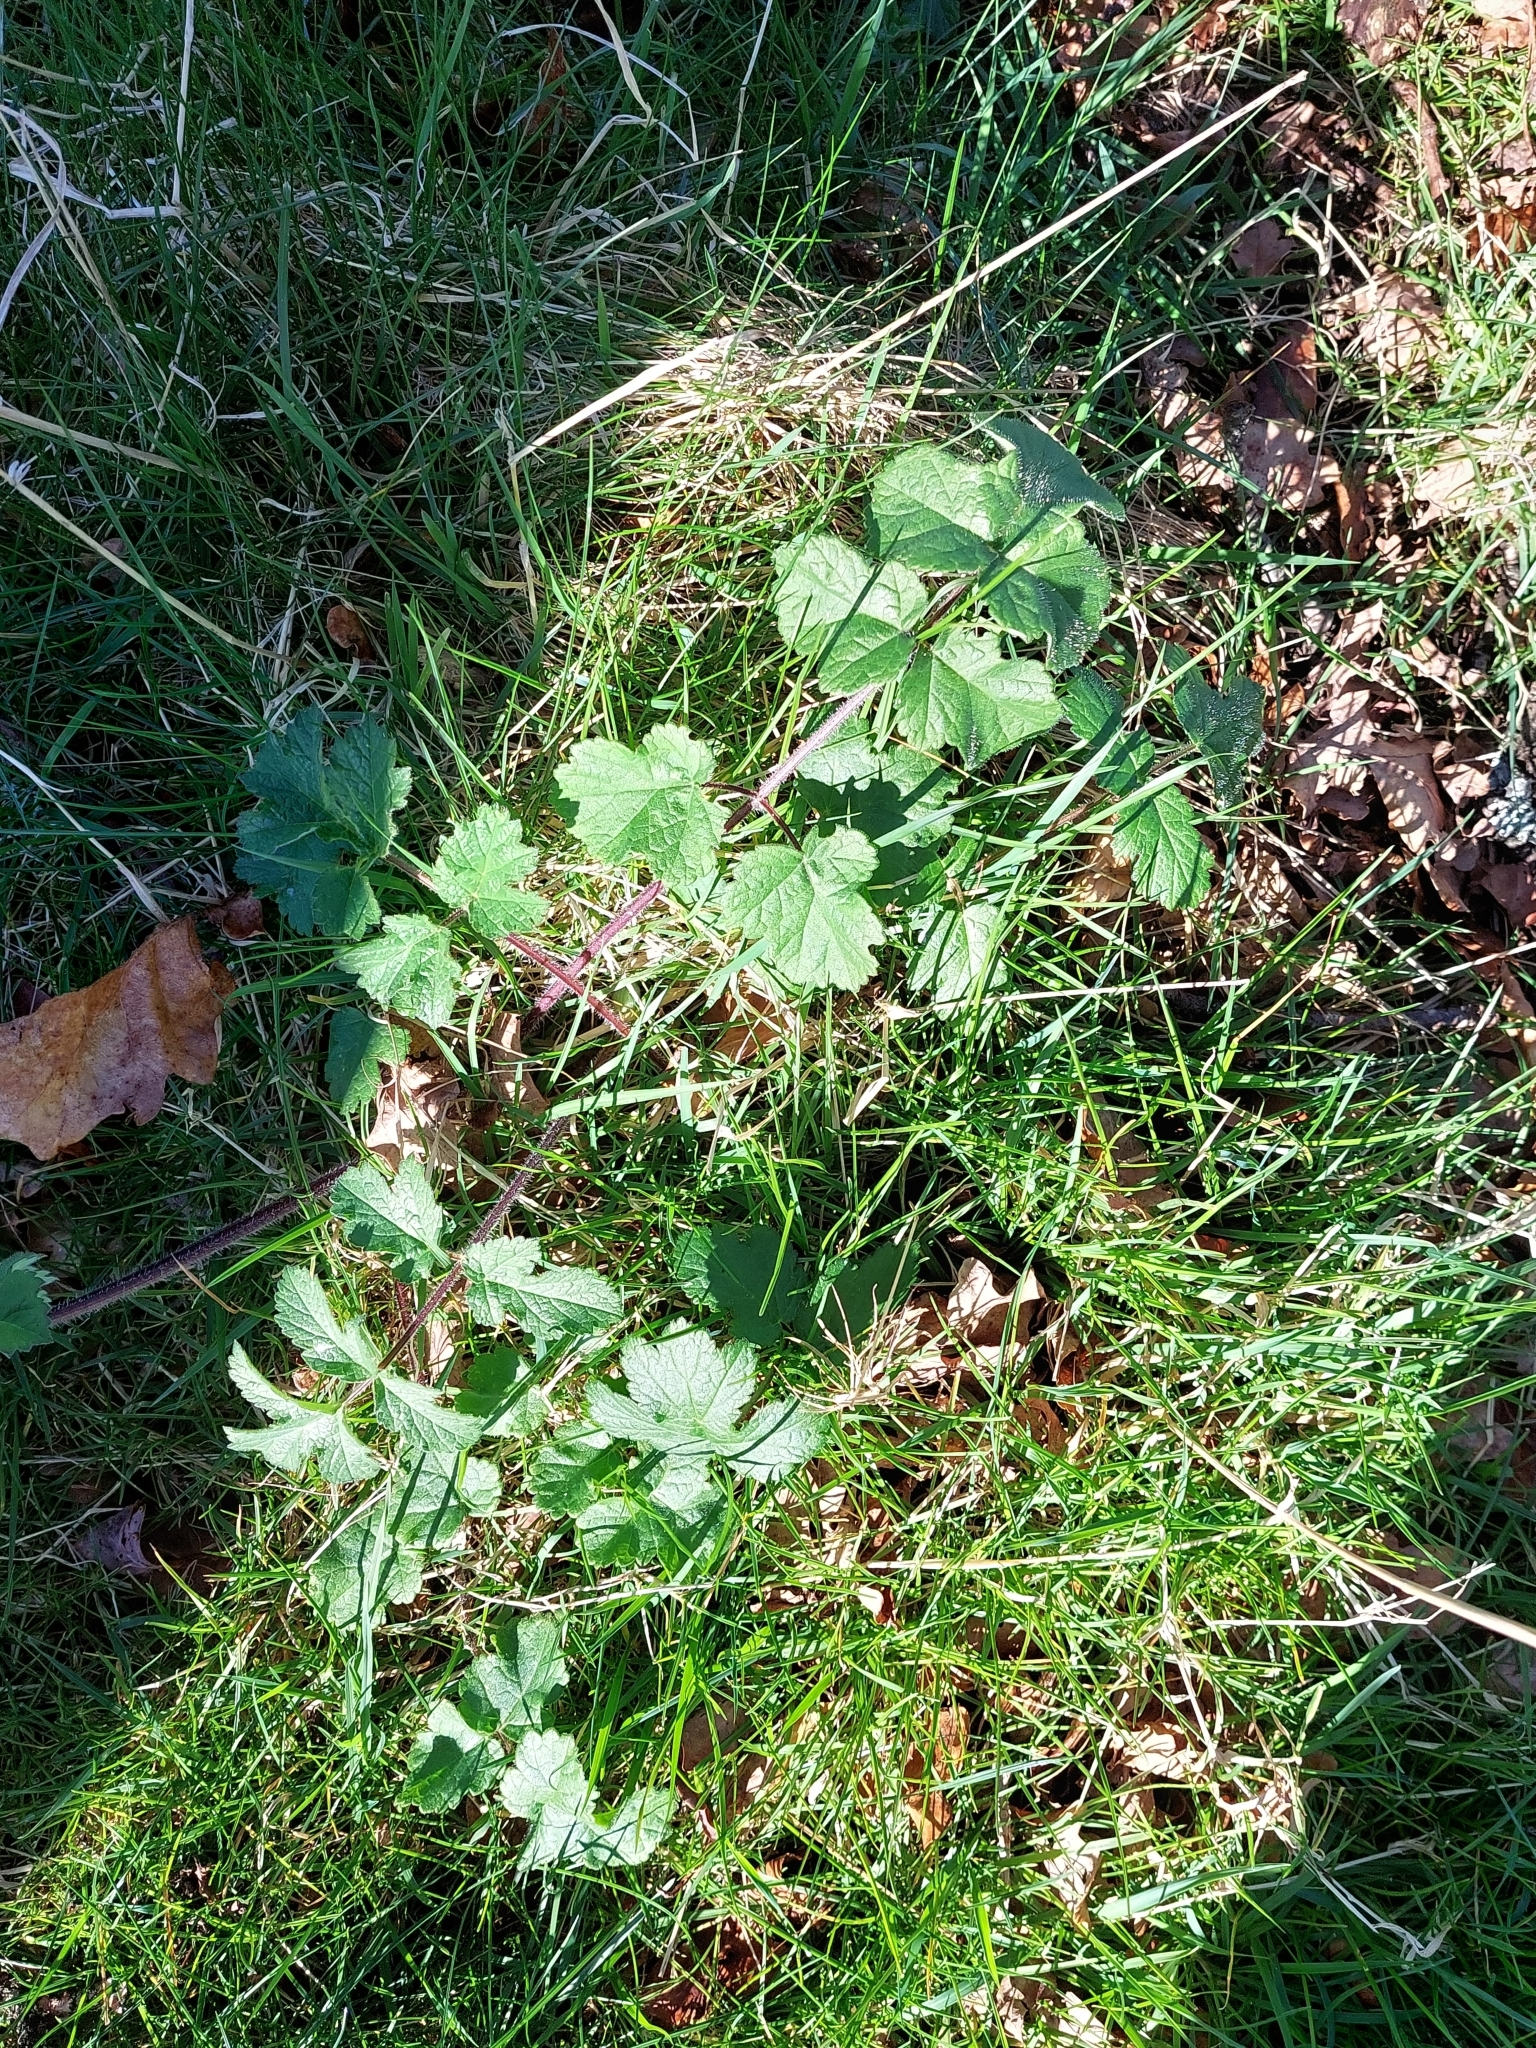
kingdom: Plantae
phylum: Tracheophyta
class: Magnoliopsida
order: Apiales
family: Apiaceae
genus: Heracleum
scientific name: Heracleum sphondylium
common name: Hogweed
